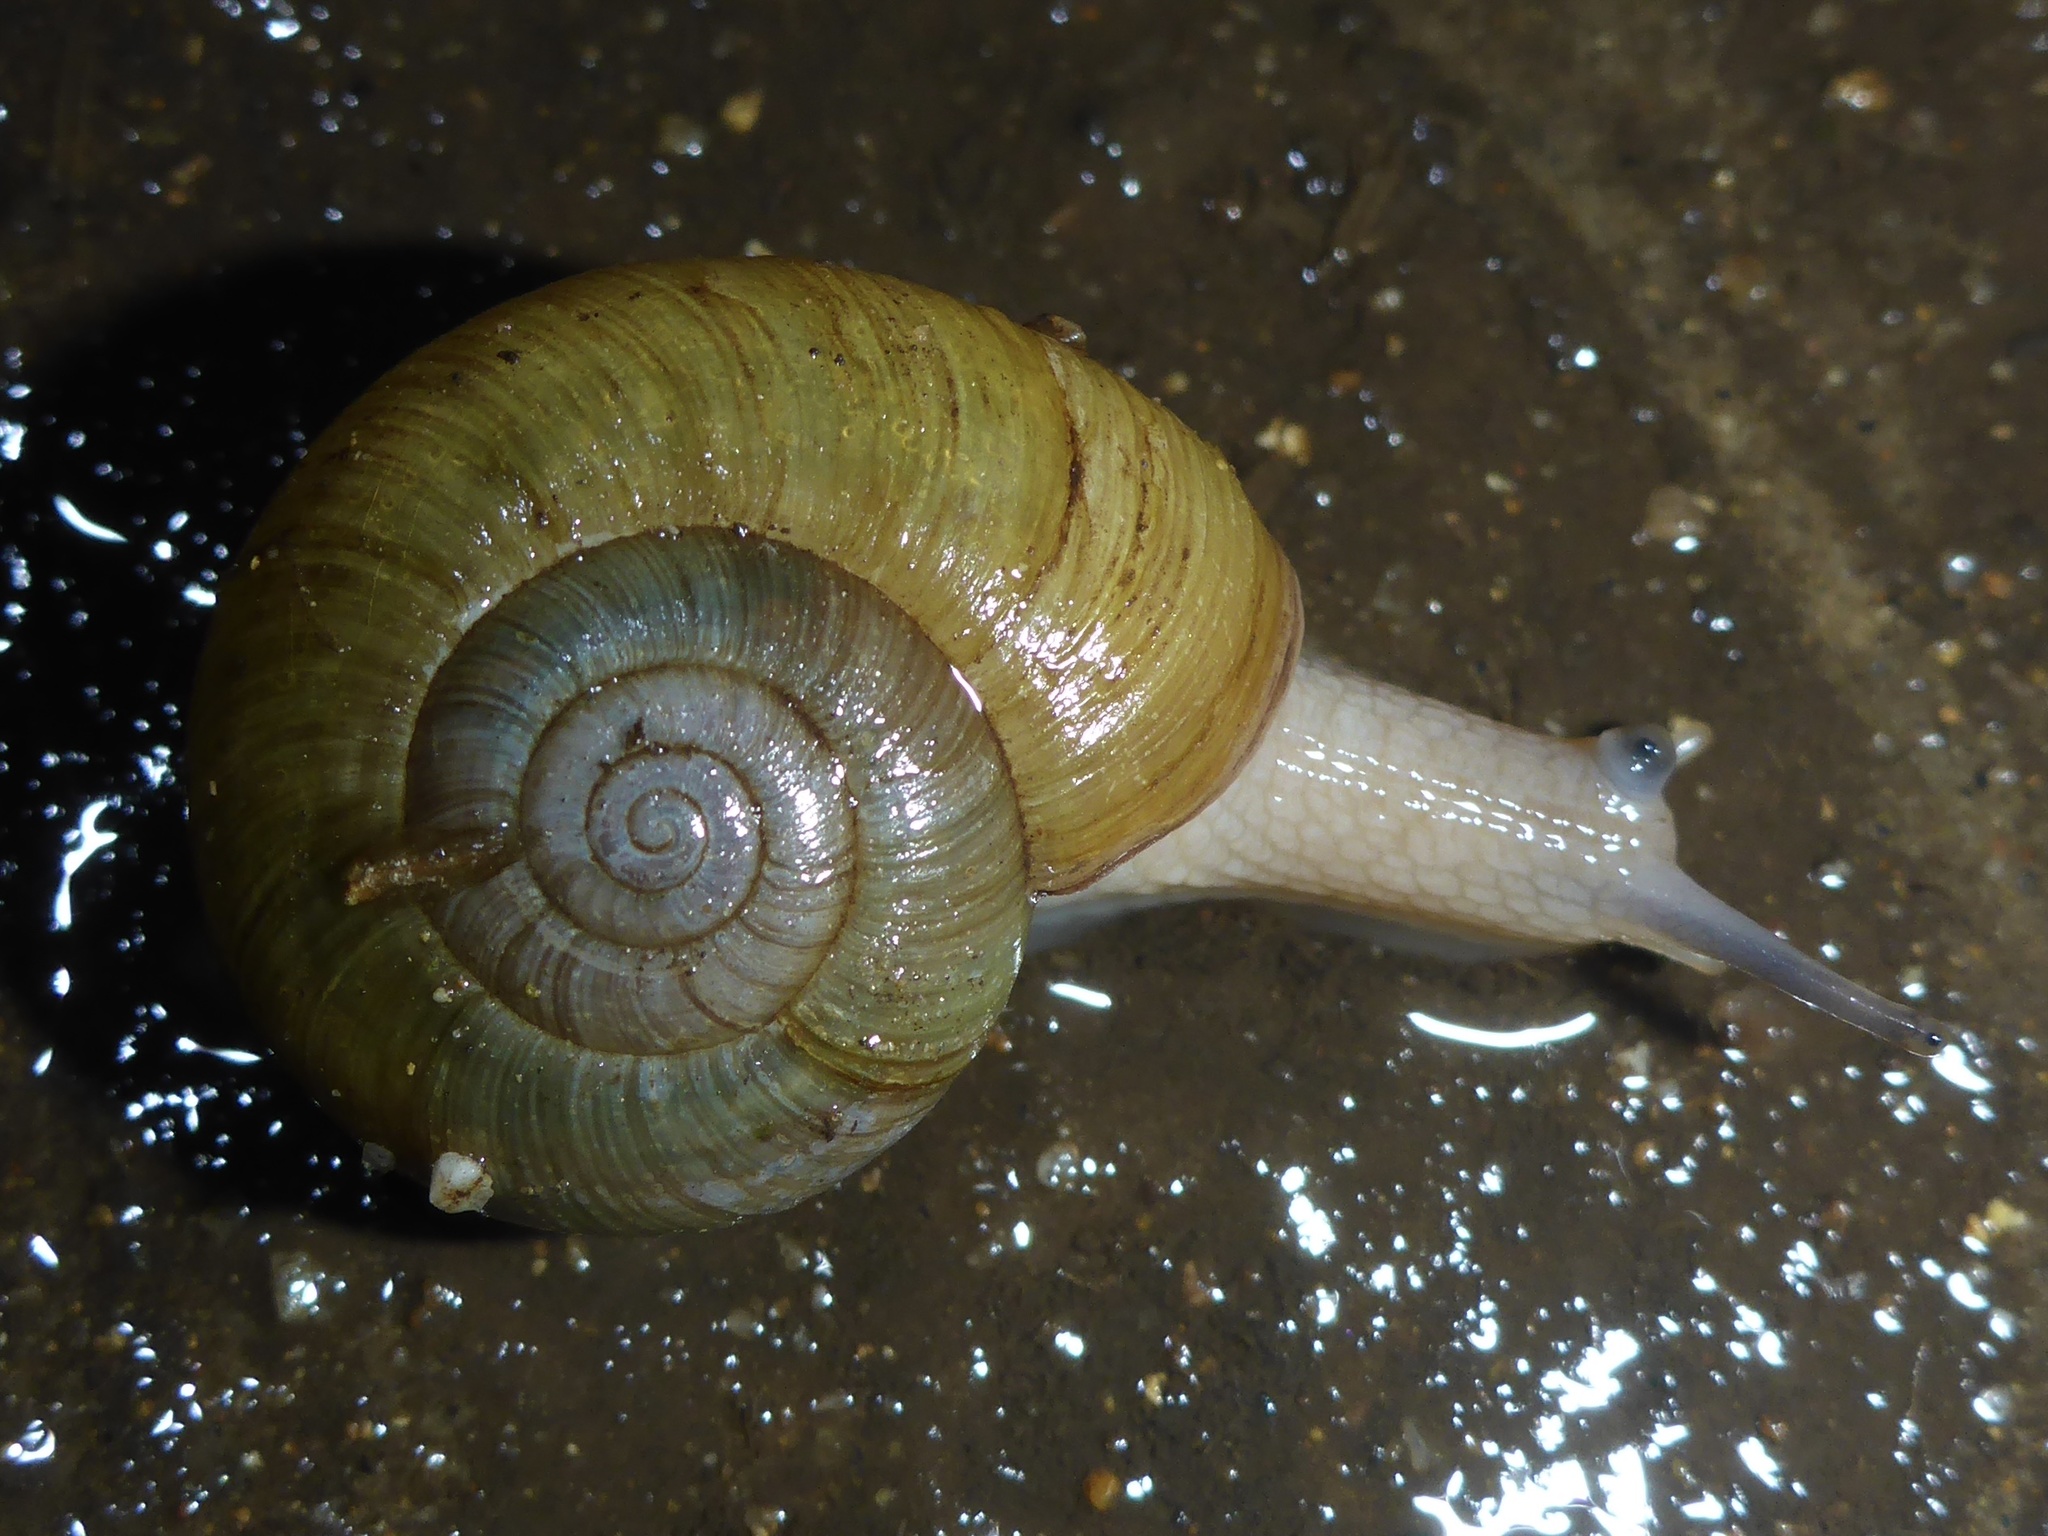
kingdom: Animalia
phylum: Mollusca
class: Gastropoda
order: Stylommatophora
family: Haplotrematidae
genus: Haplotrema
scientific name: Haplotrema minimum
